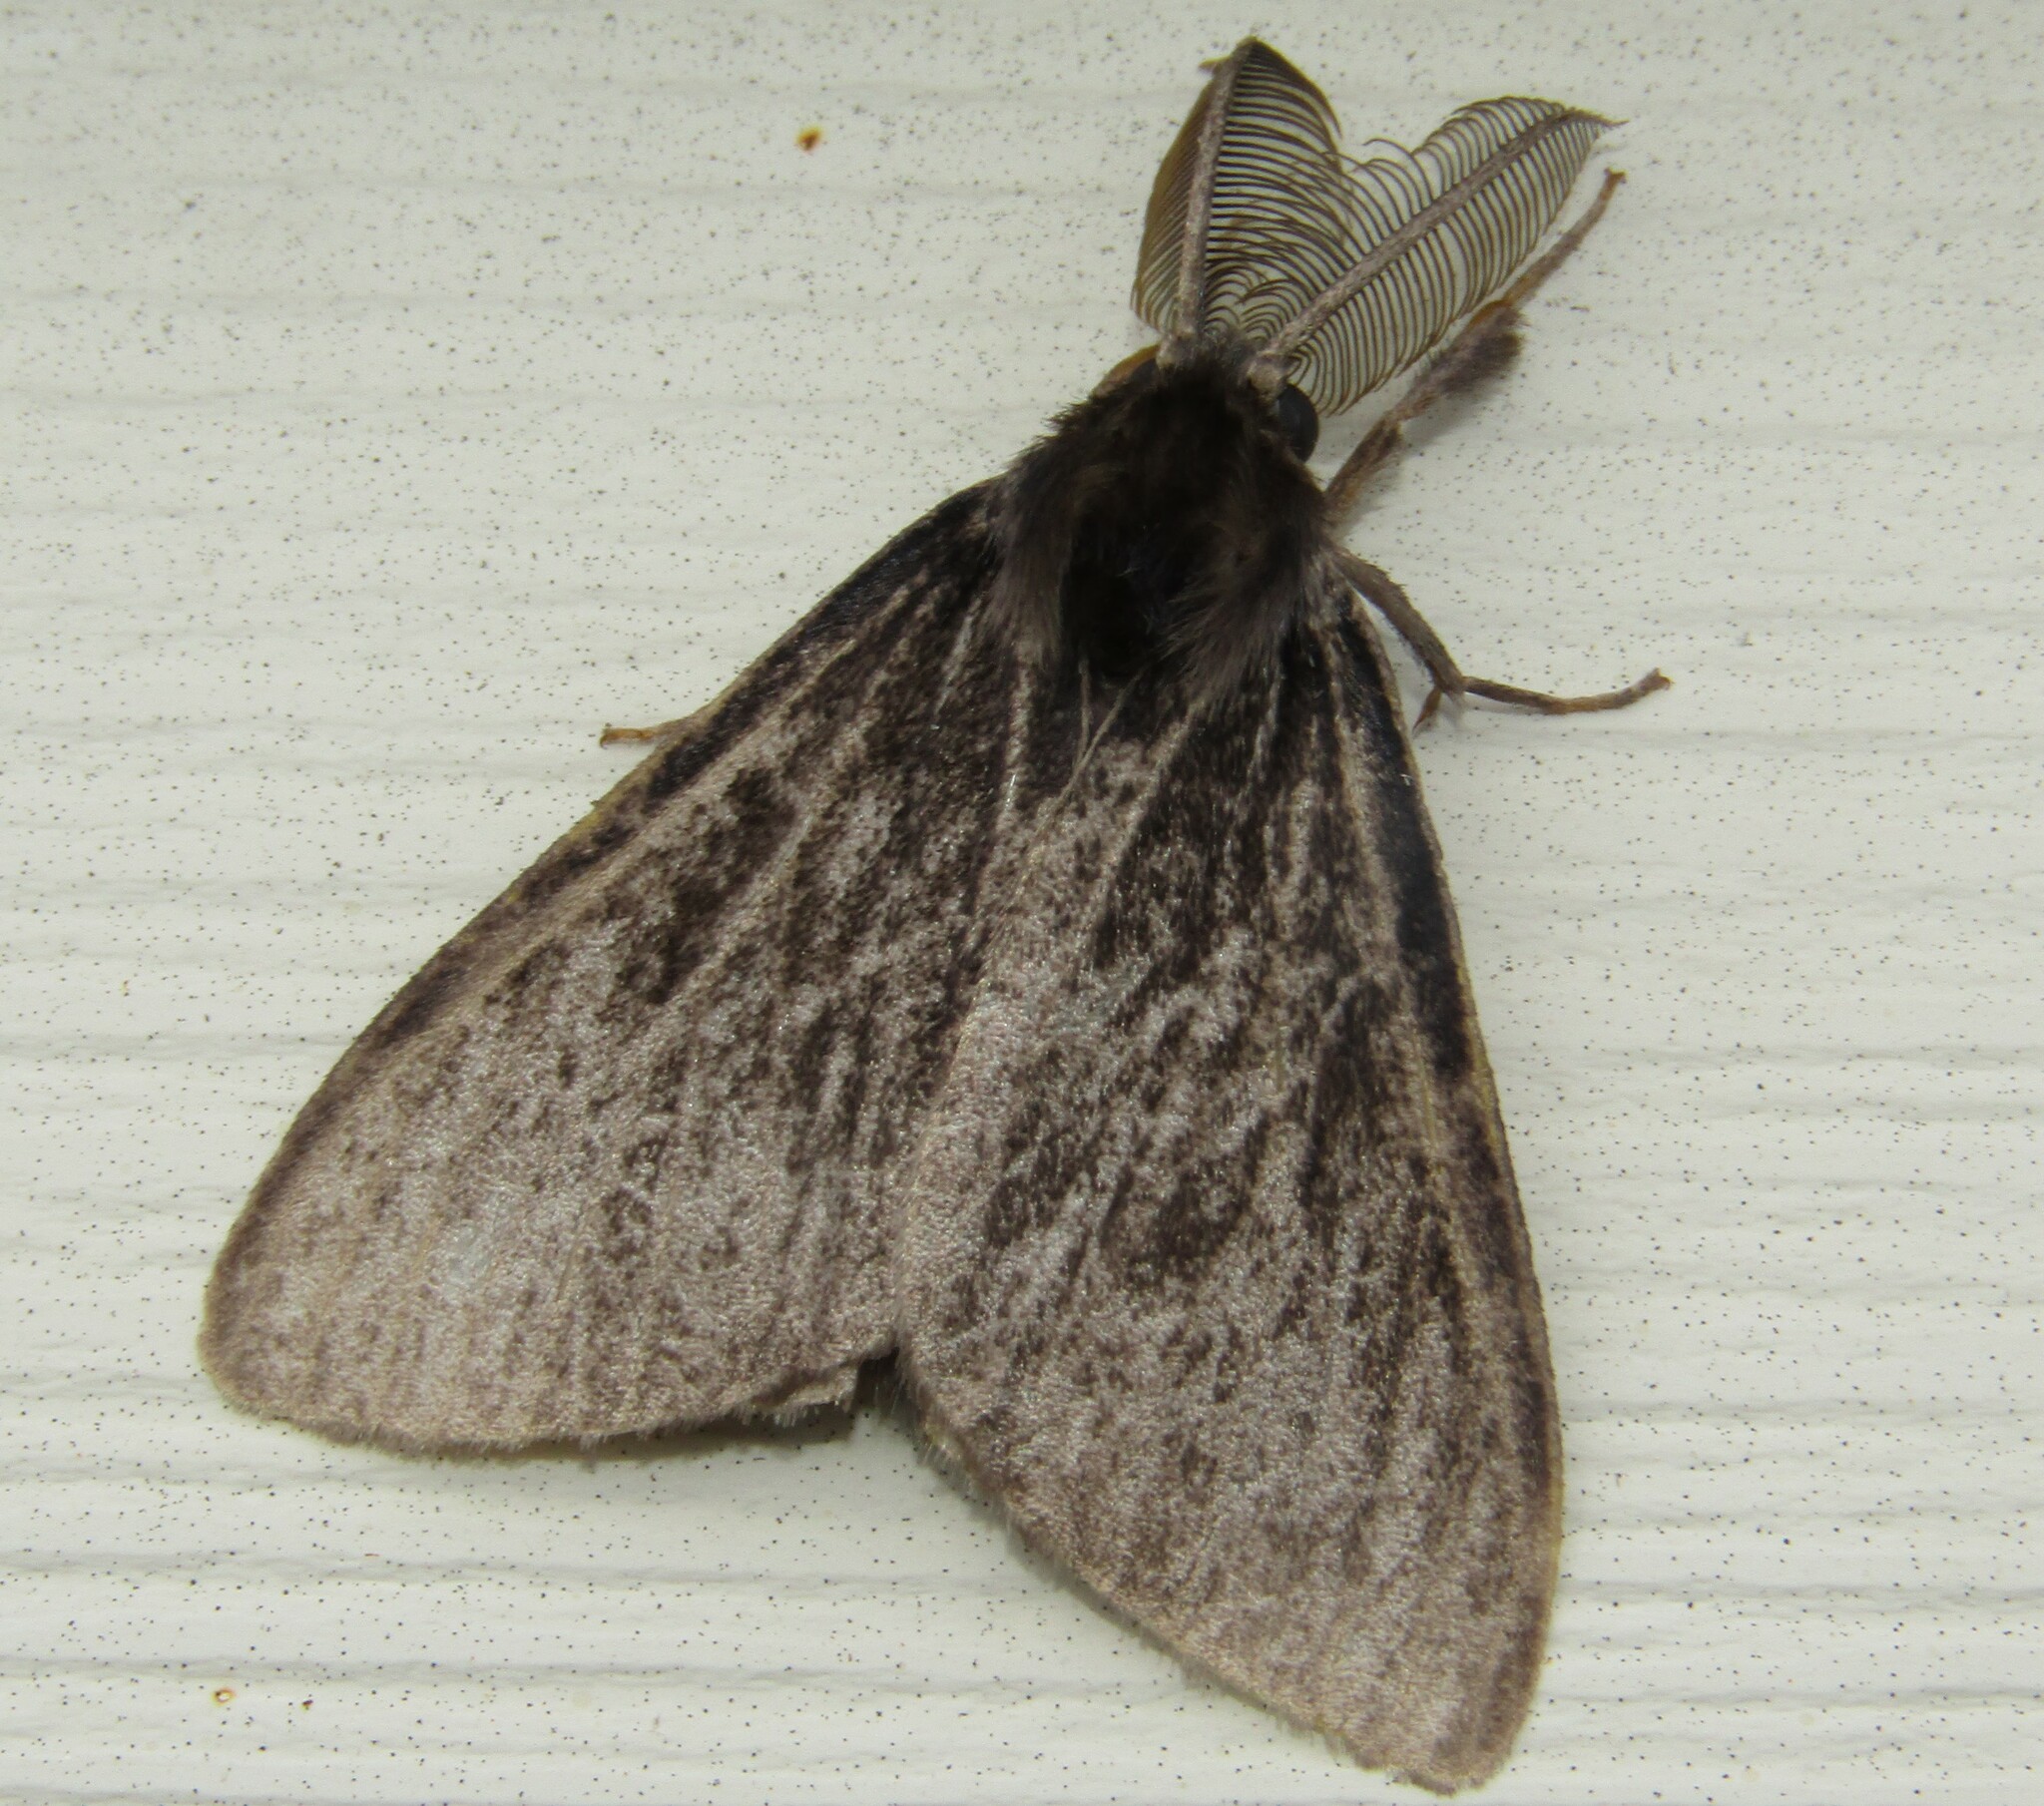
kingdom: Animalia
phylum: Arthropoda
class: Insecta
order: Lepidoptera
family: Erebidae
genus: Lymantria
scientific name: Lymantria monacha
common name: Black arches
